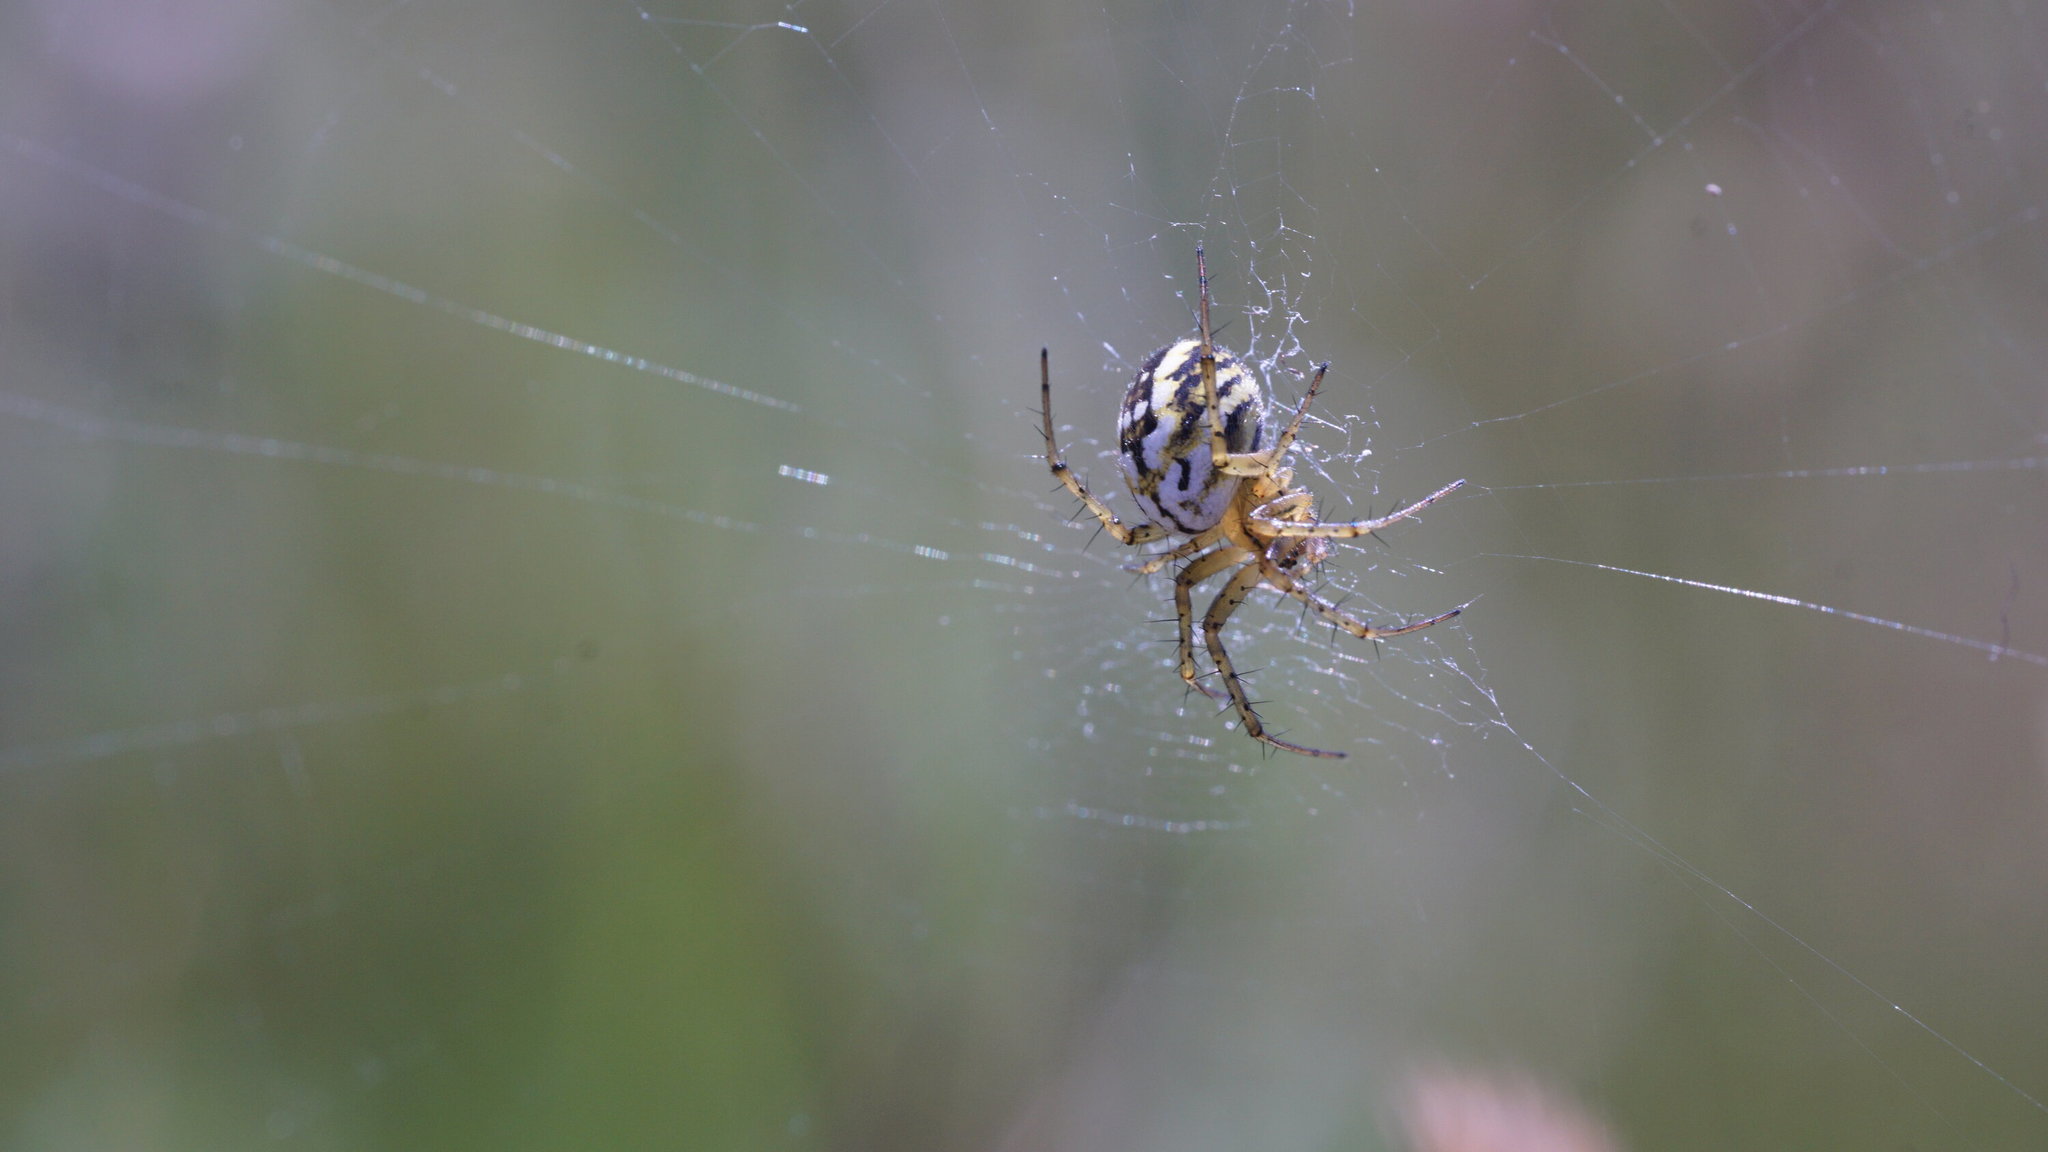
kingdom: Animalia
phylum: Arthropoda
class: Arachnida
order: Araneae
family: Araneidae
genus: Mangora
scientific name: Mangora acalypha
